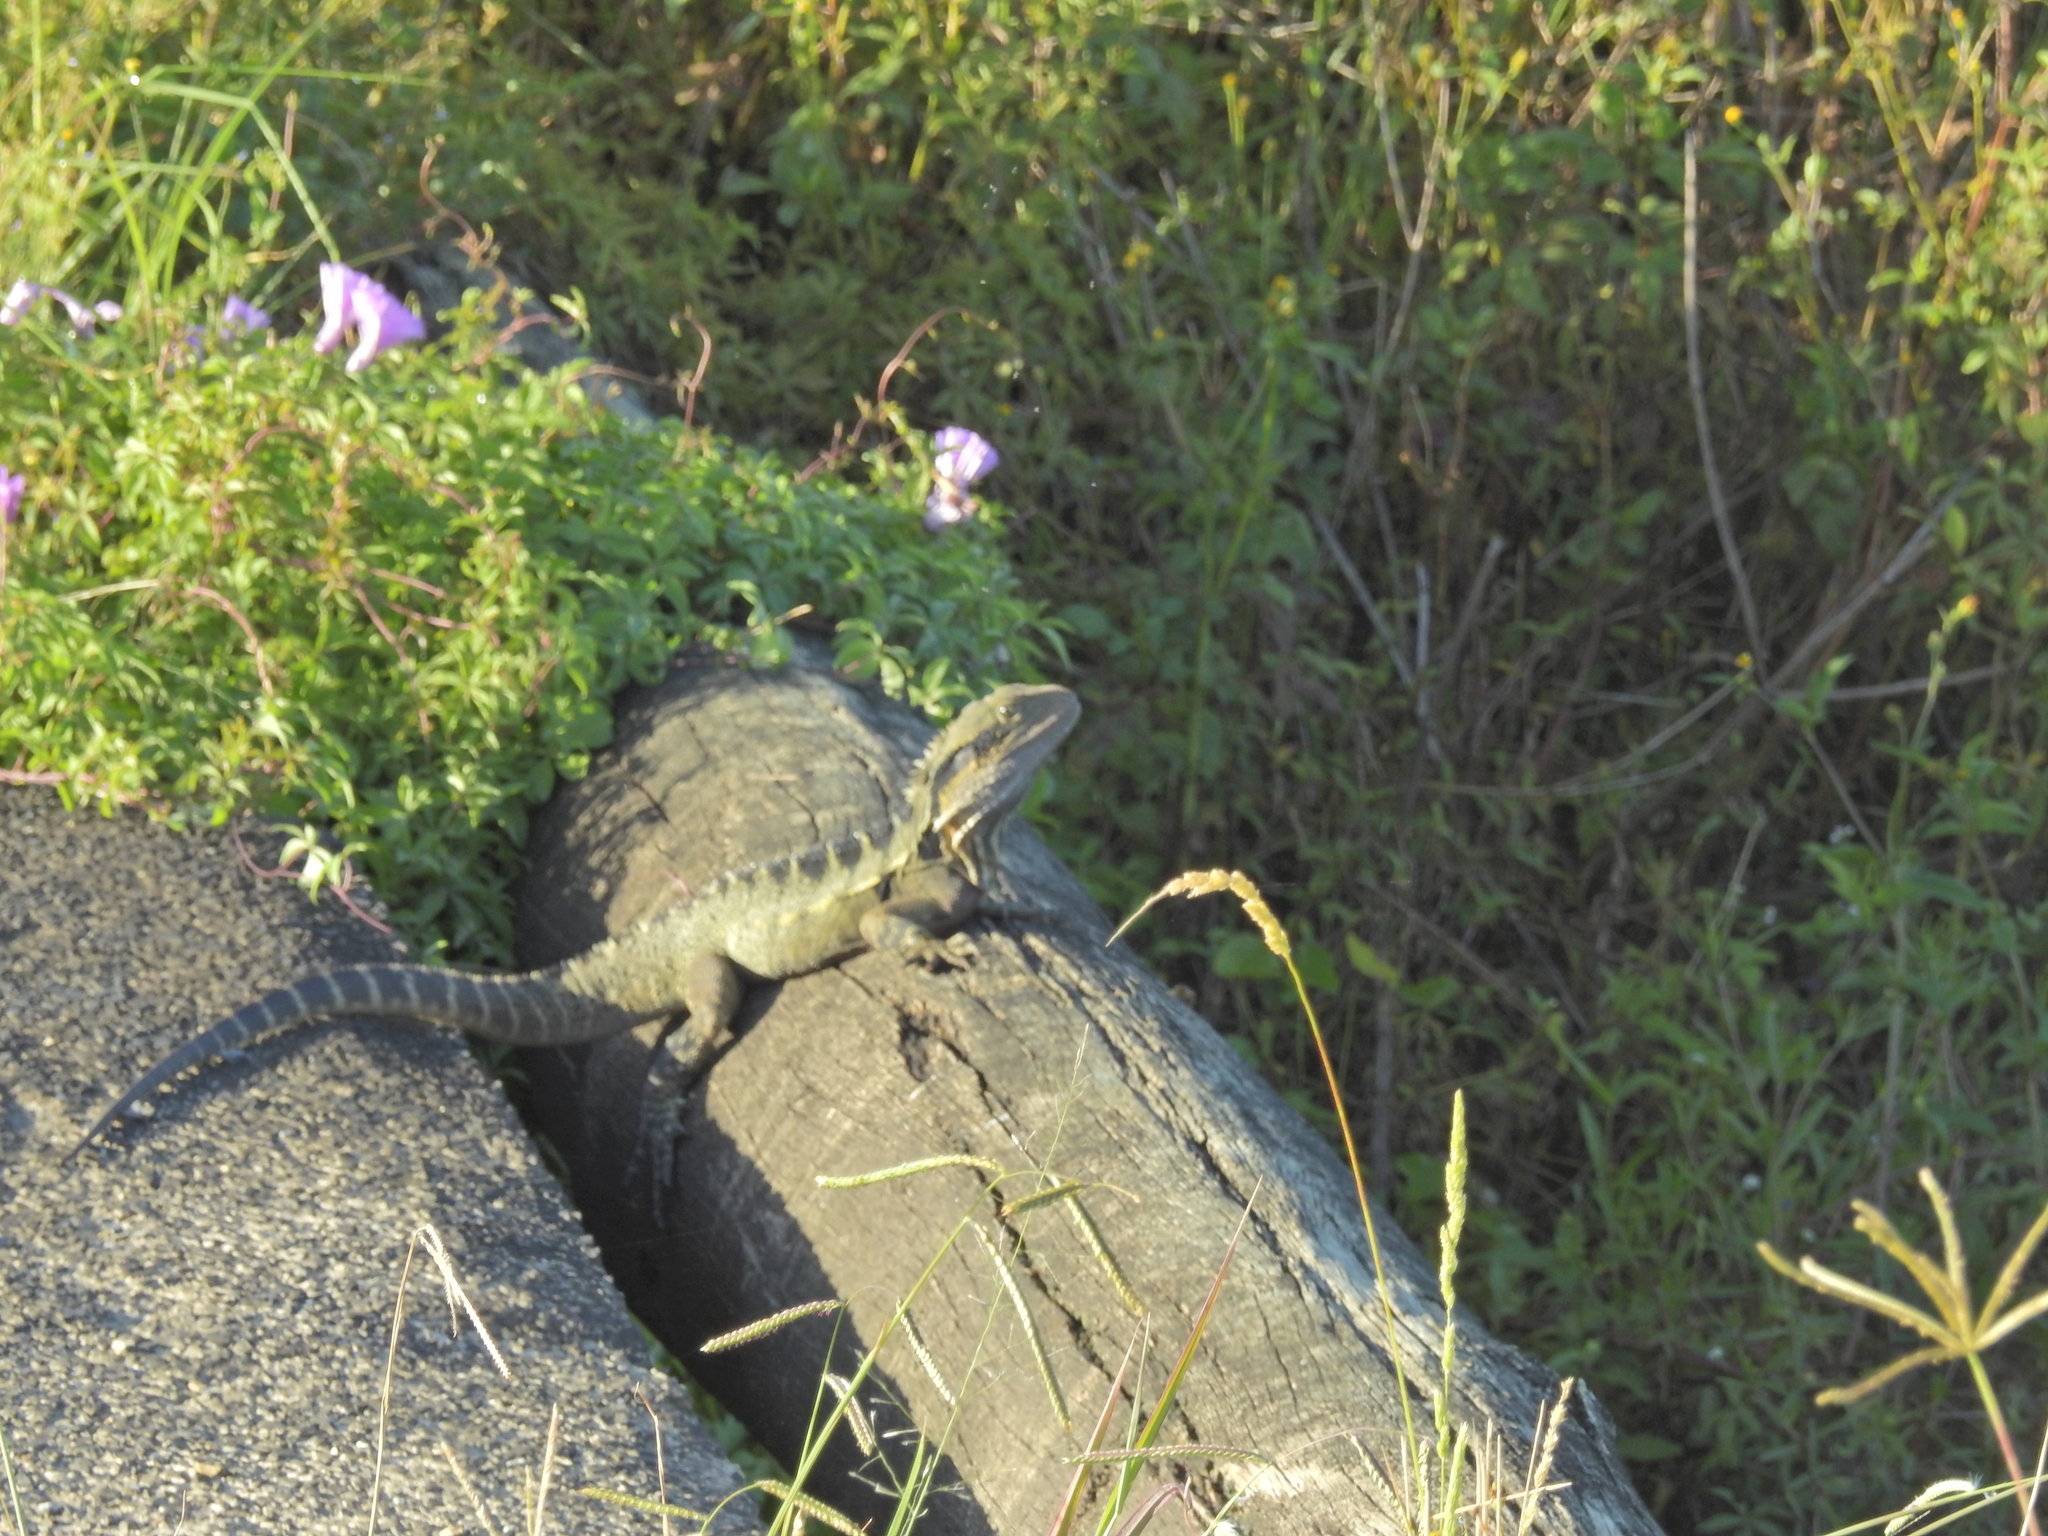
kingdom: Animalia
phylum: Chordata
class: Squamata
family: Agamidae
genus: Intellagama
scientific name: Intellagama lesueurii
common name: Eastern water dragon
